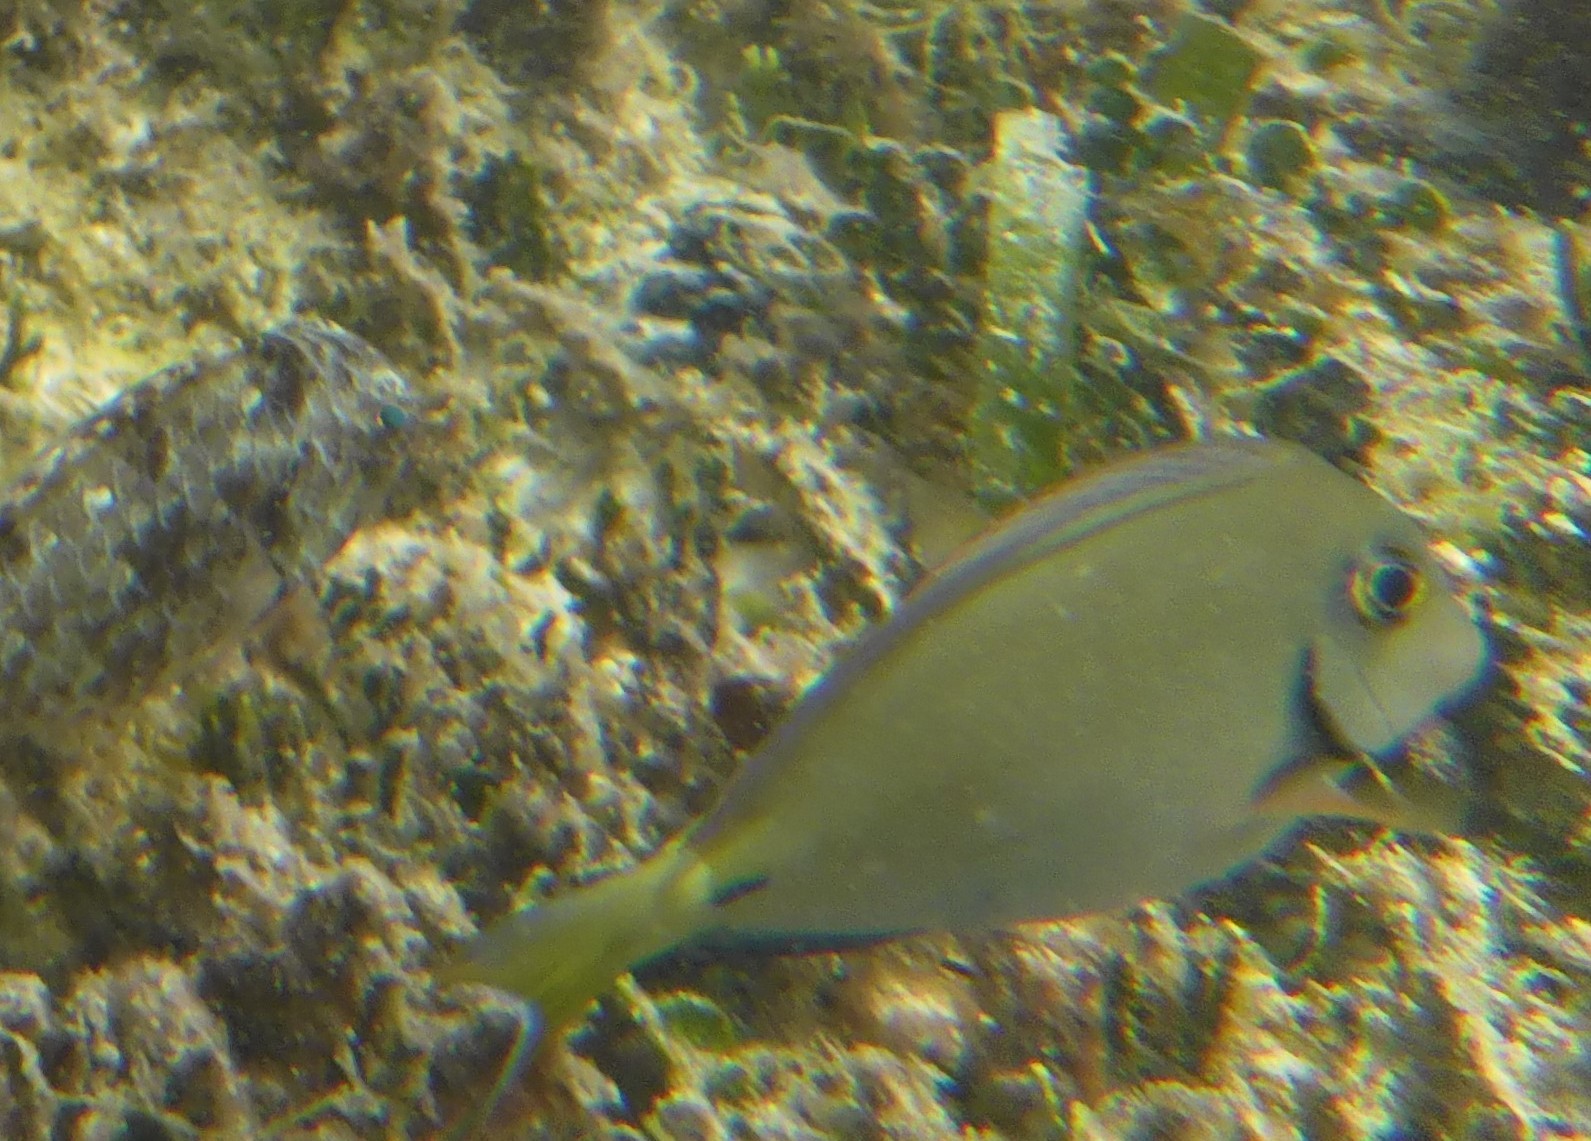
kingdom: Animalia
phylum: Chordata
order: Perciformes
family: Acanthuridae
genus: Acanthurus
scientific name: Acanthurus bahianus
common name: Ocean surgeon
